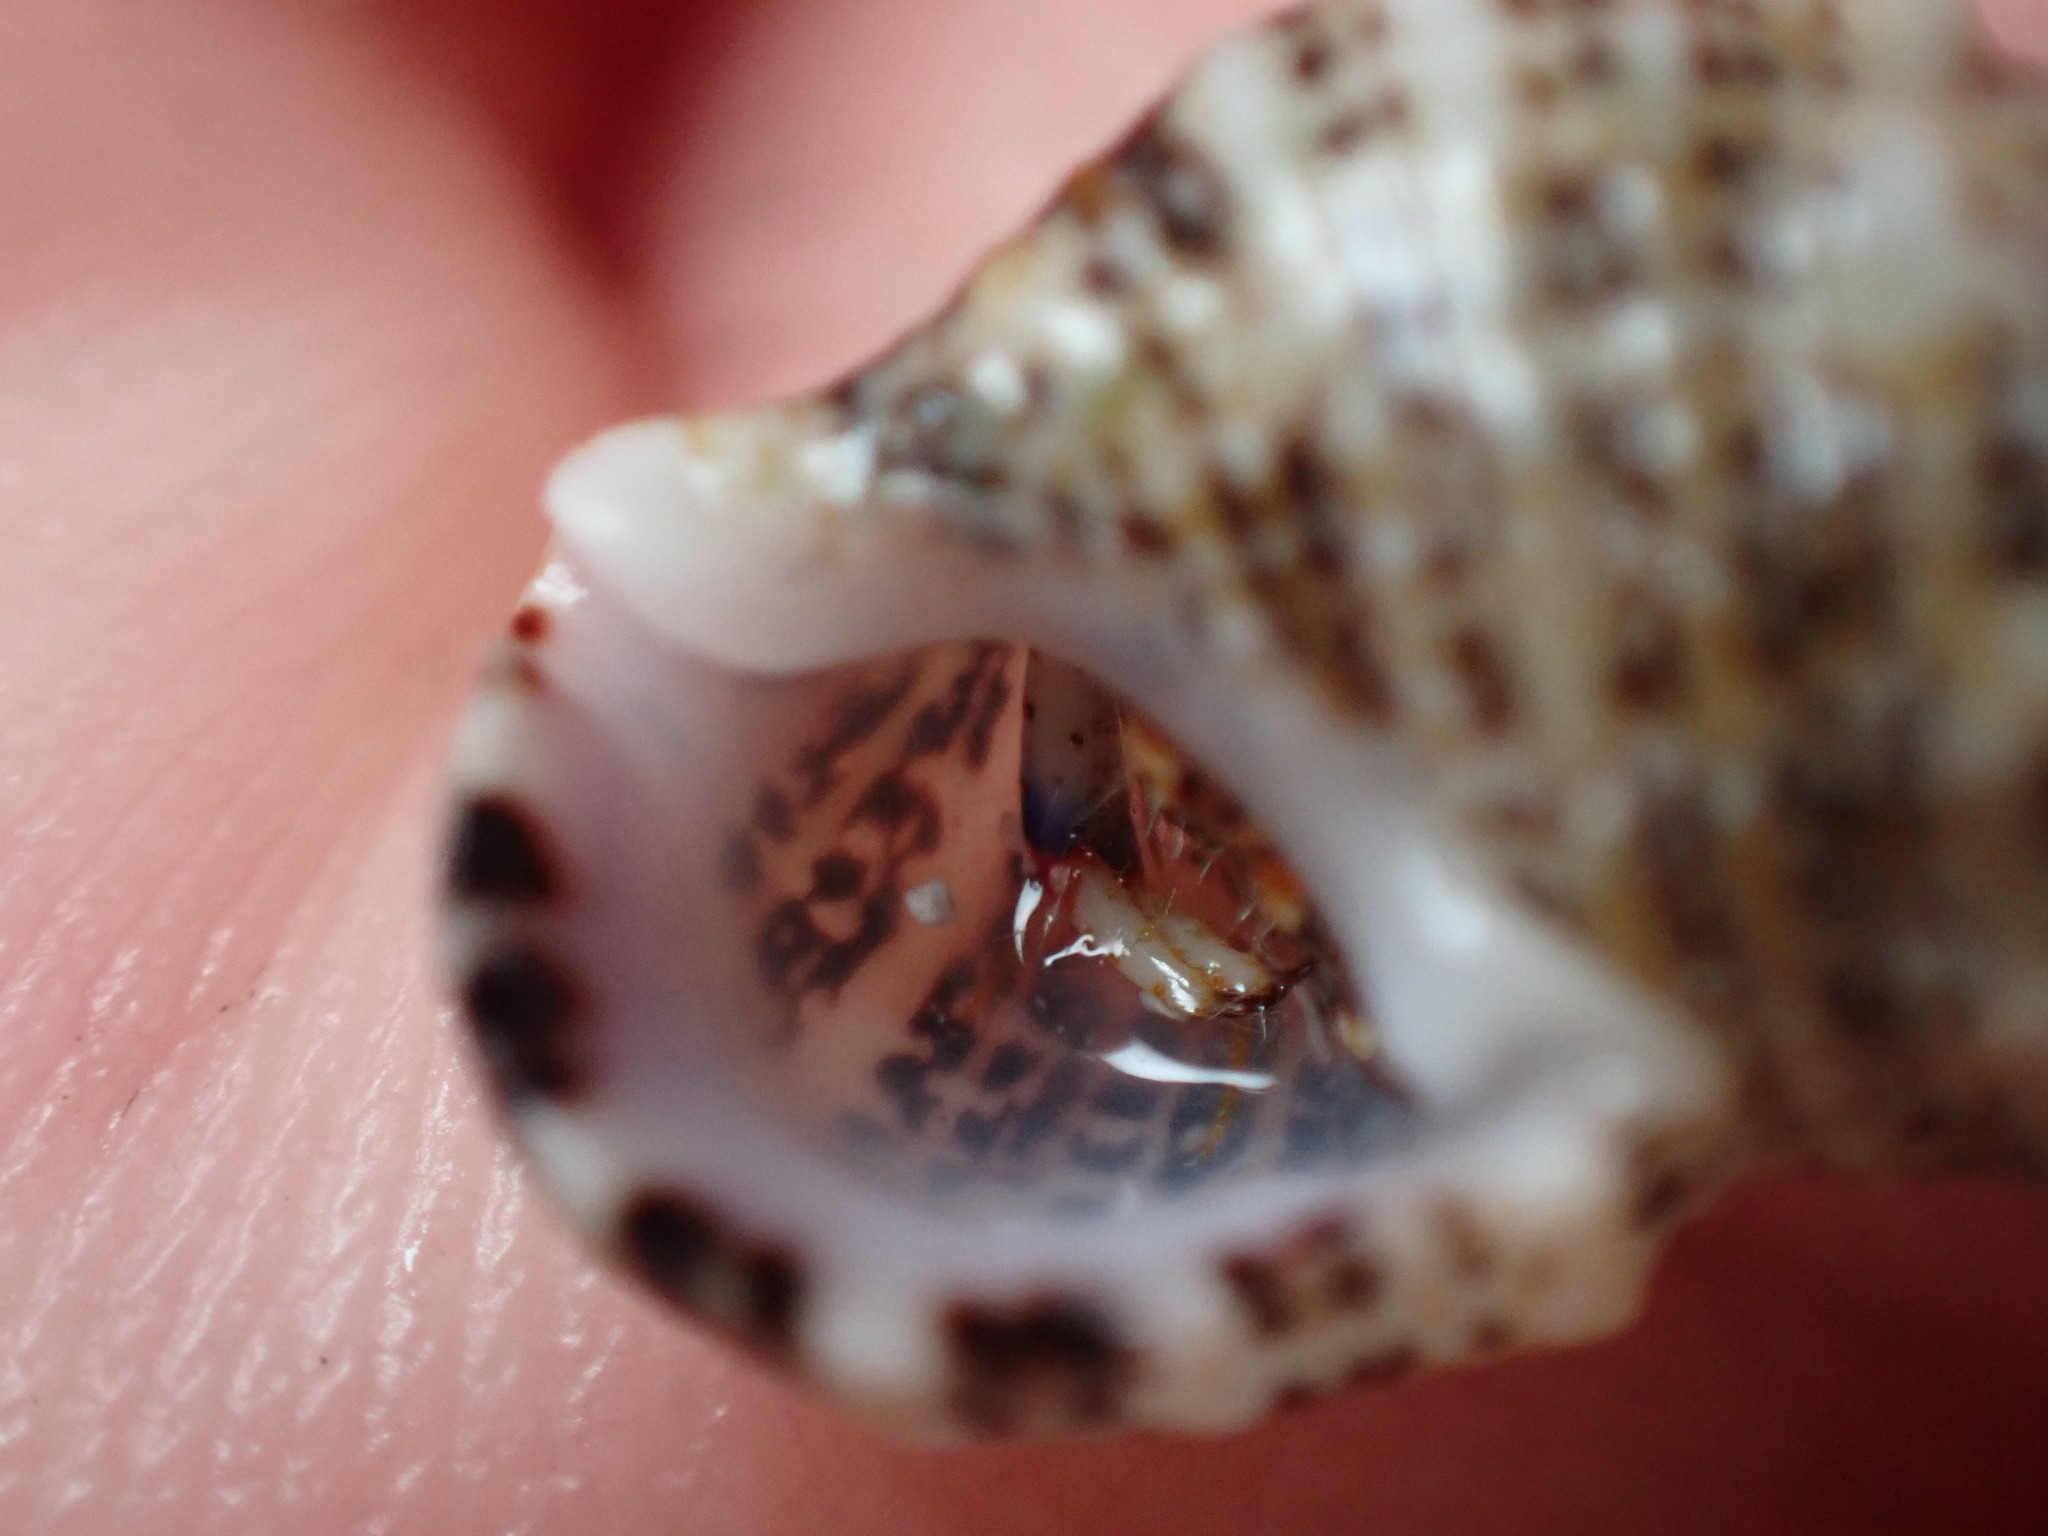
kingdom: Animalia
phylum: Arthropoda
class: Malacostraca
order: Decapoda
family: Diogenidae
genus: Clibanarius
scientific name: Clibanarius tricolor
